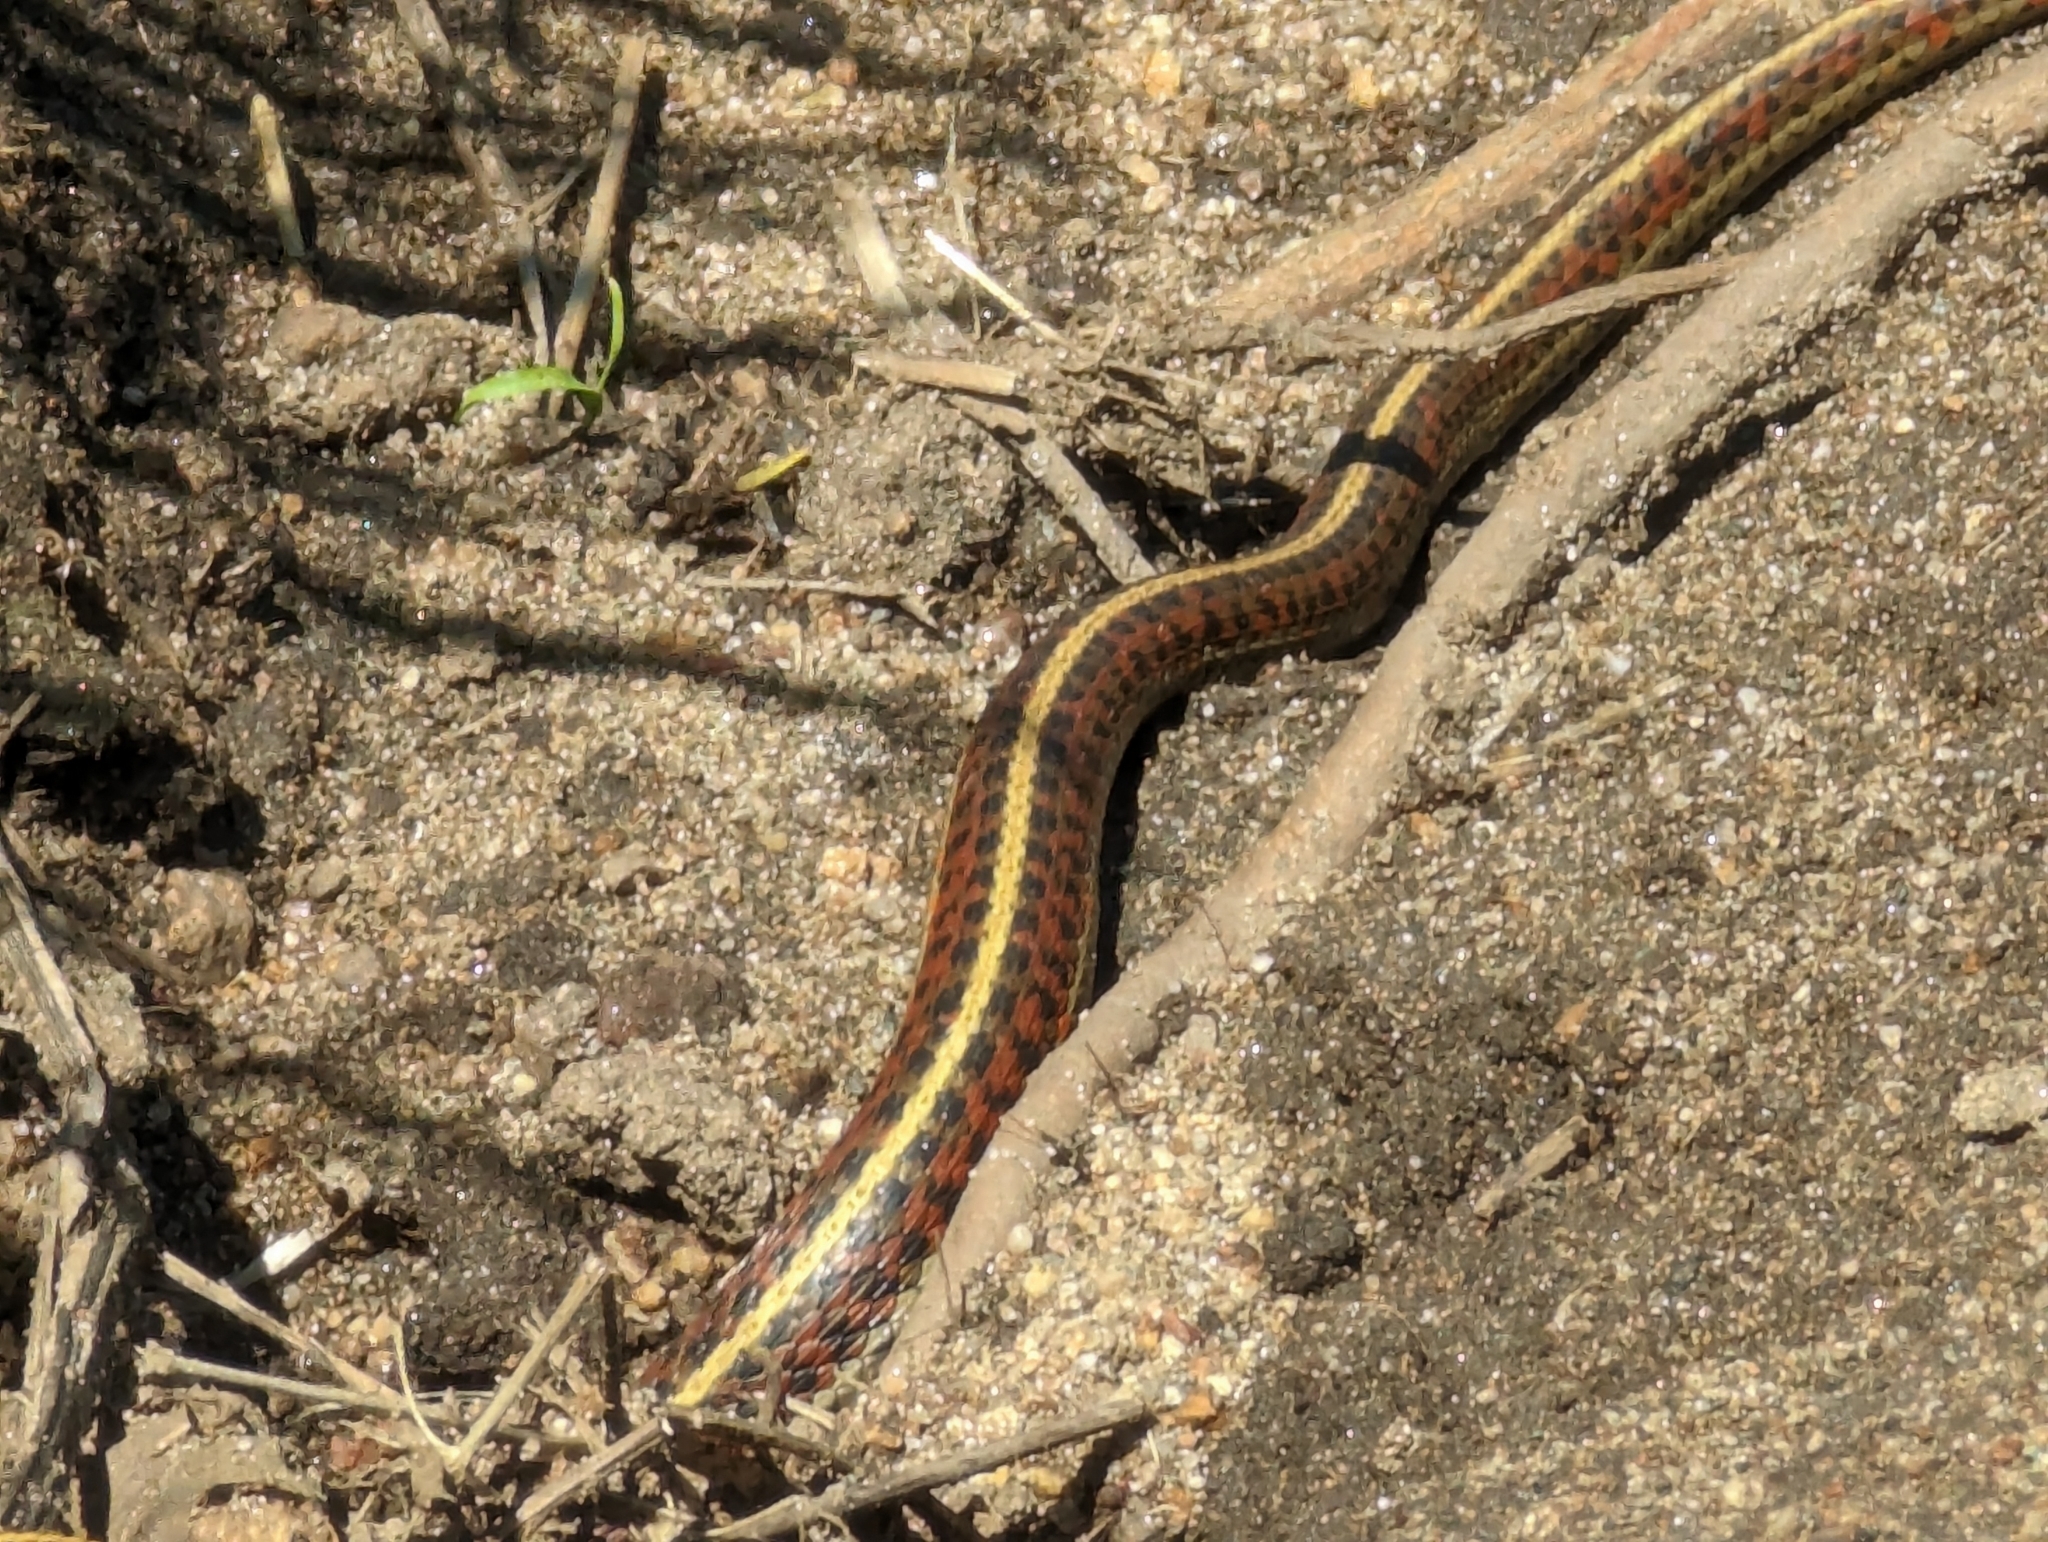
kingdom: Animalia
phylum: Chordata
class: Squamata
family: Colubridae
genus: Thamnophis
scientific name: Thamnophis elegans
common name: Western terrestrial garter snake
